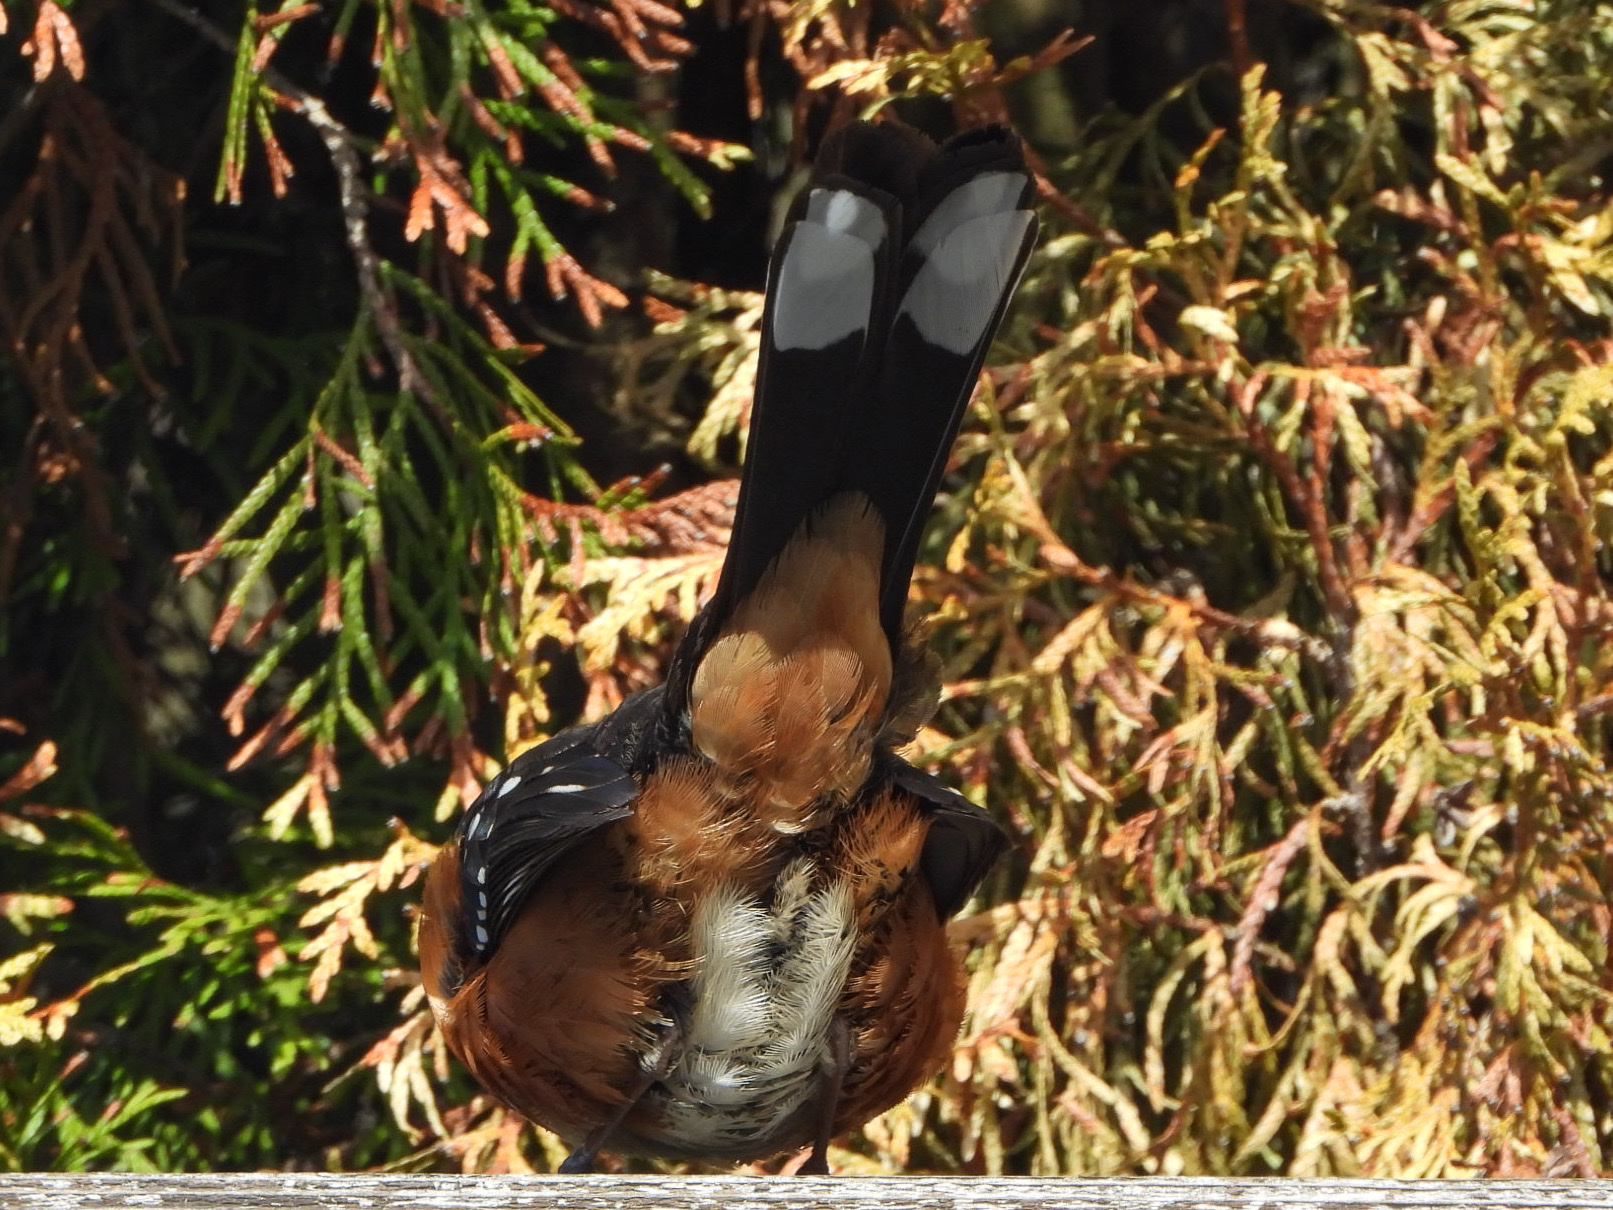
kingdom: Animalia
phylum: Chordata
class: Aves
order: Passeriformes
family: Passerellidae
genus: Pipilo
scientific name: Pipilo maculatus
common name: Spotted towhee
